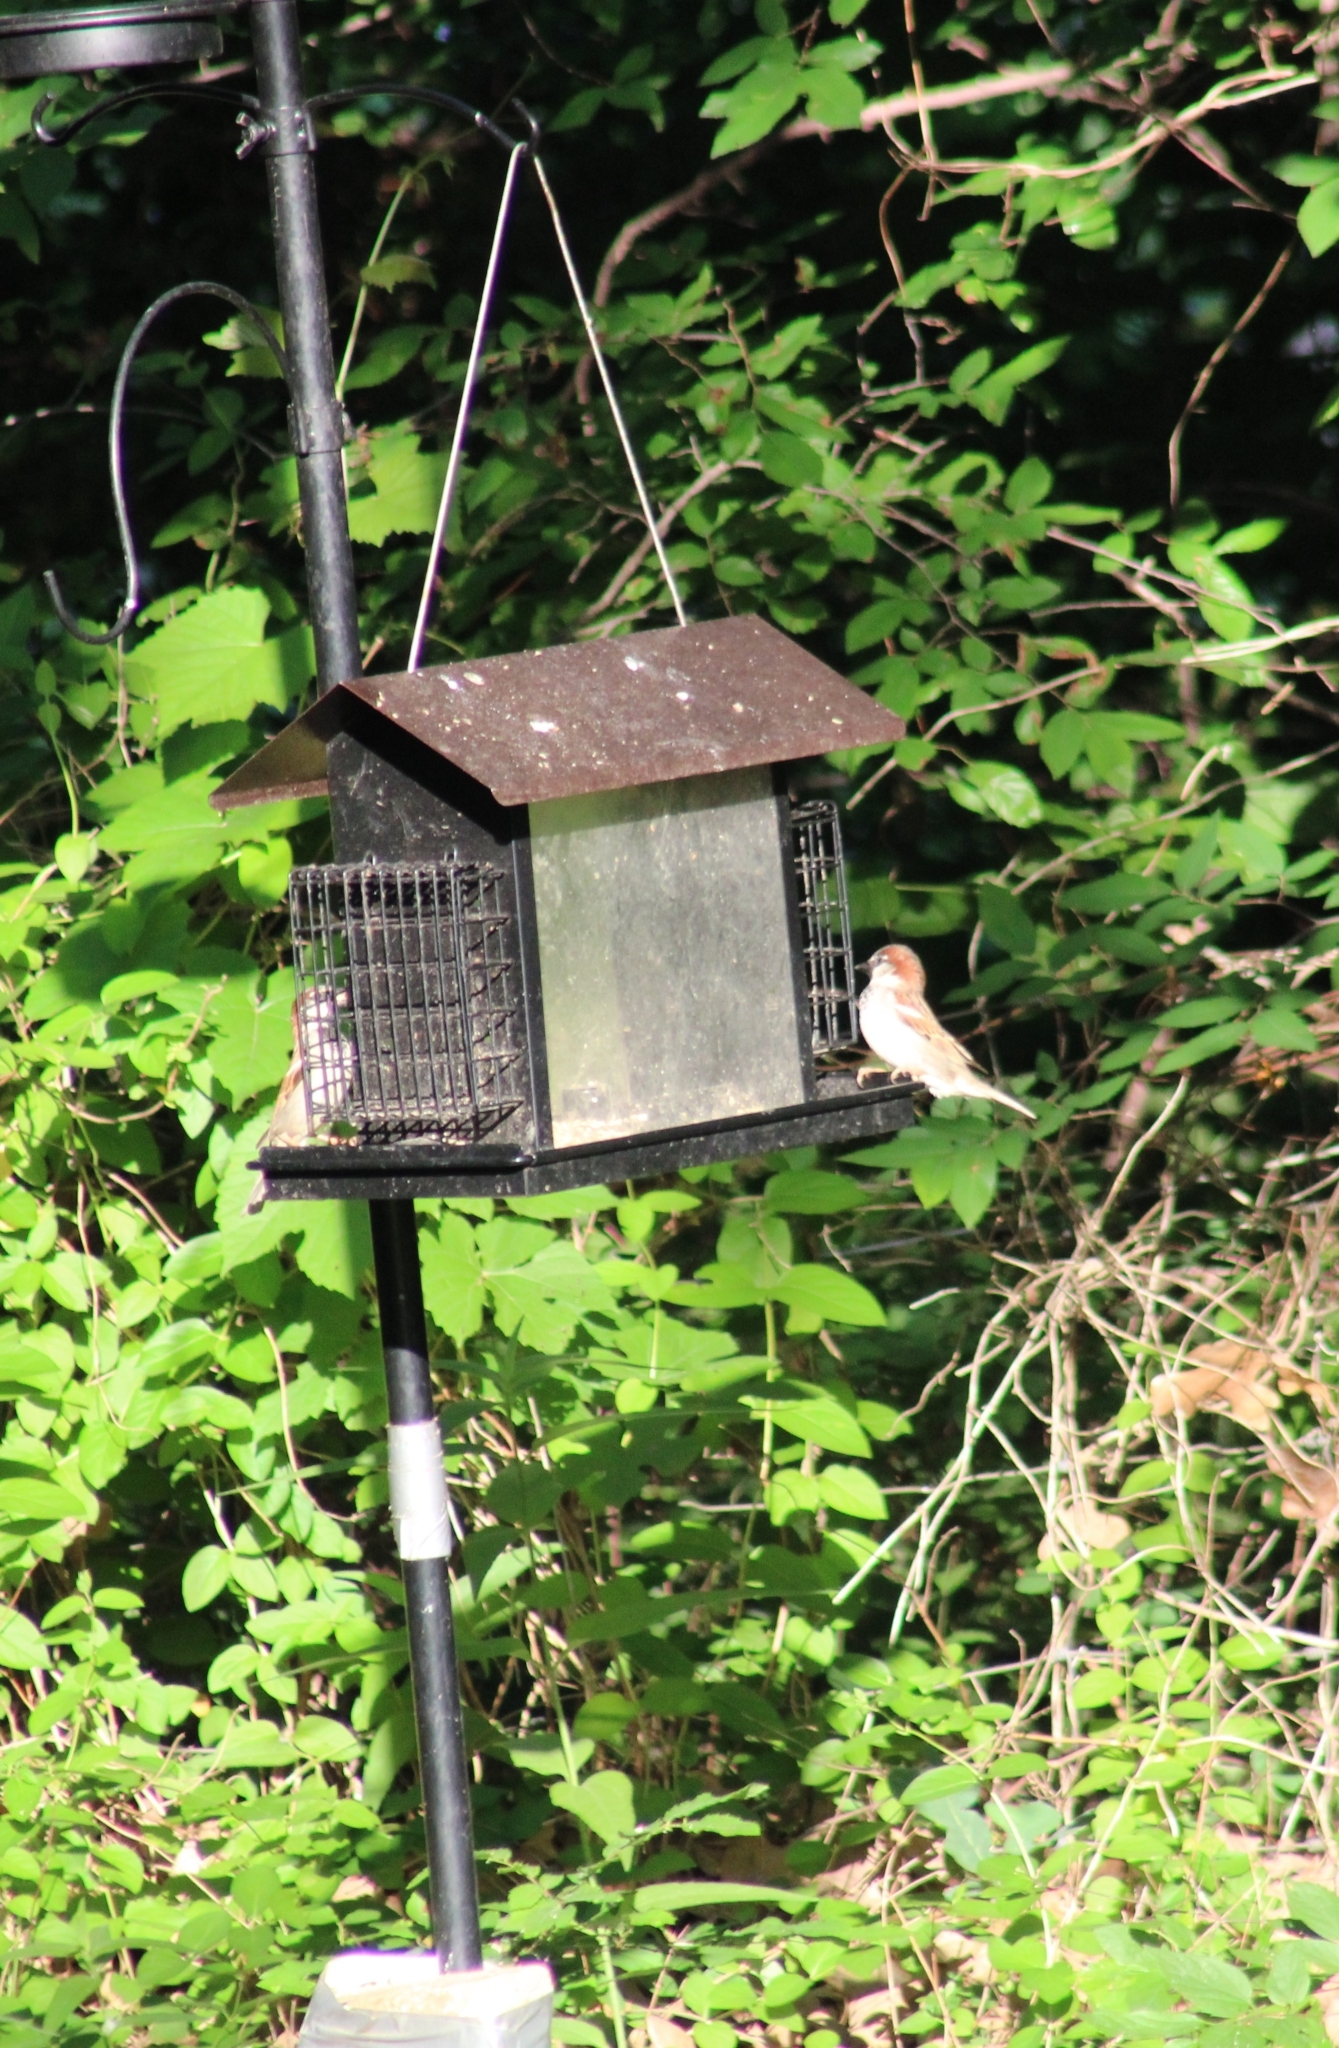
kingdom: Animalia
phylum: Chordata
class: Aves
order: Passeriformes
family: Passeridae
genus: Passer
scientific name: Passer domesticus
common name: House sparrow
